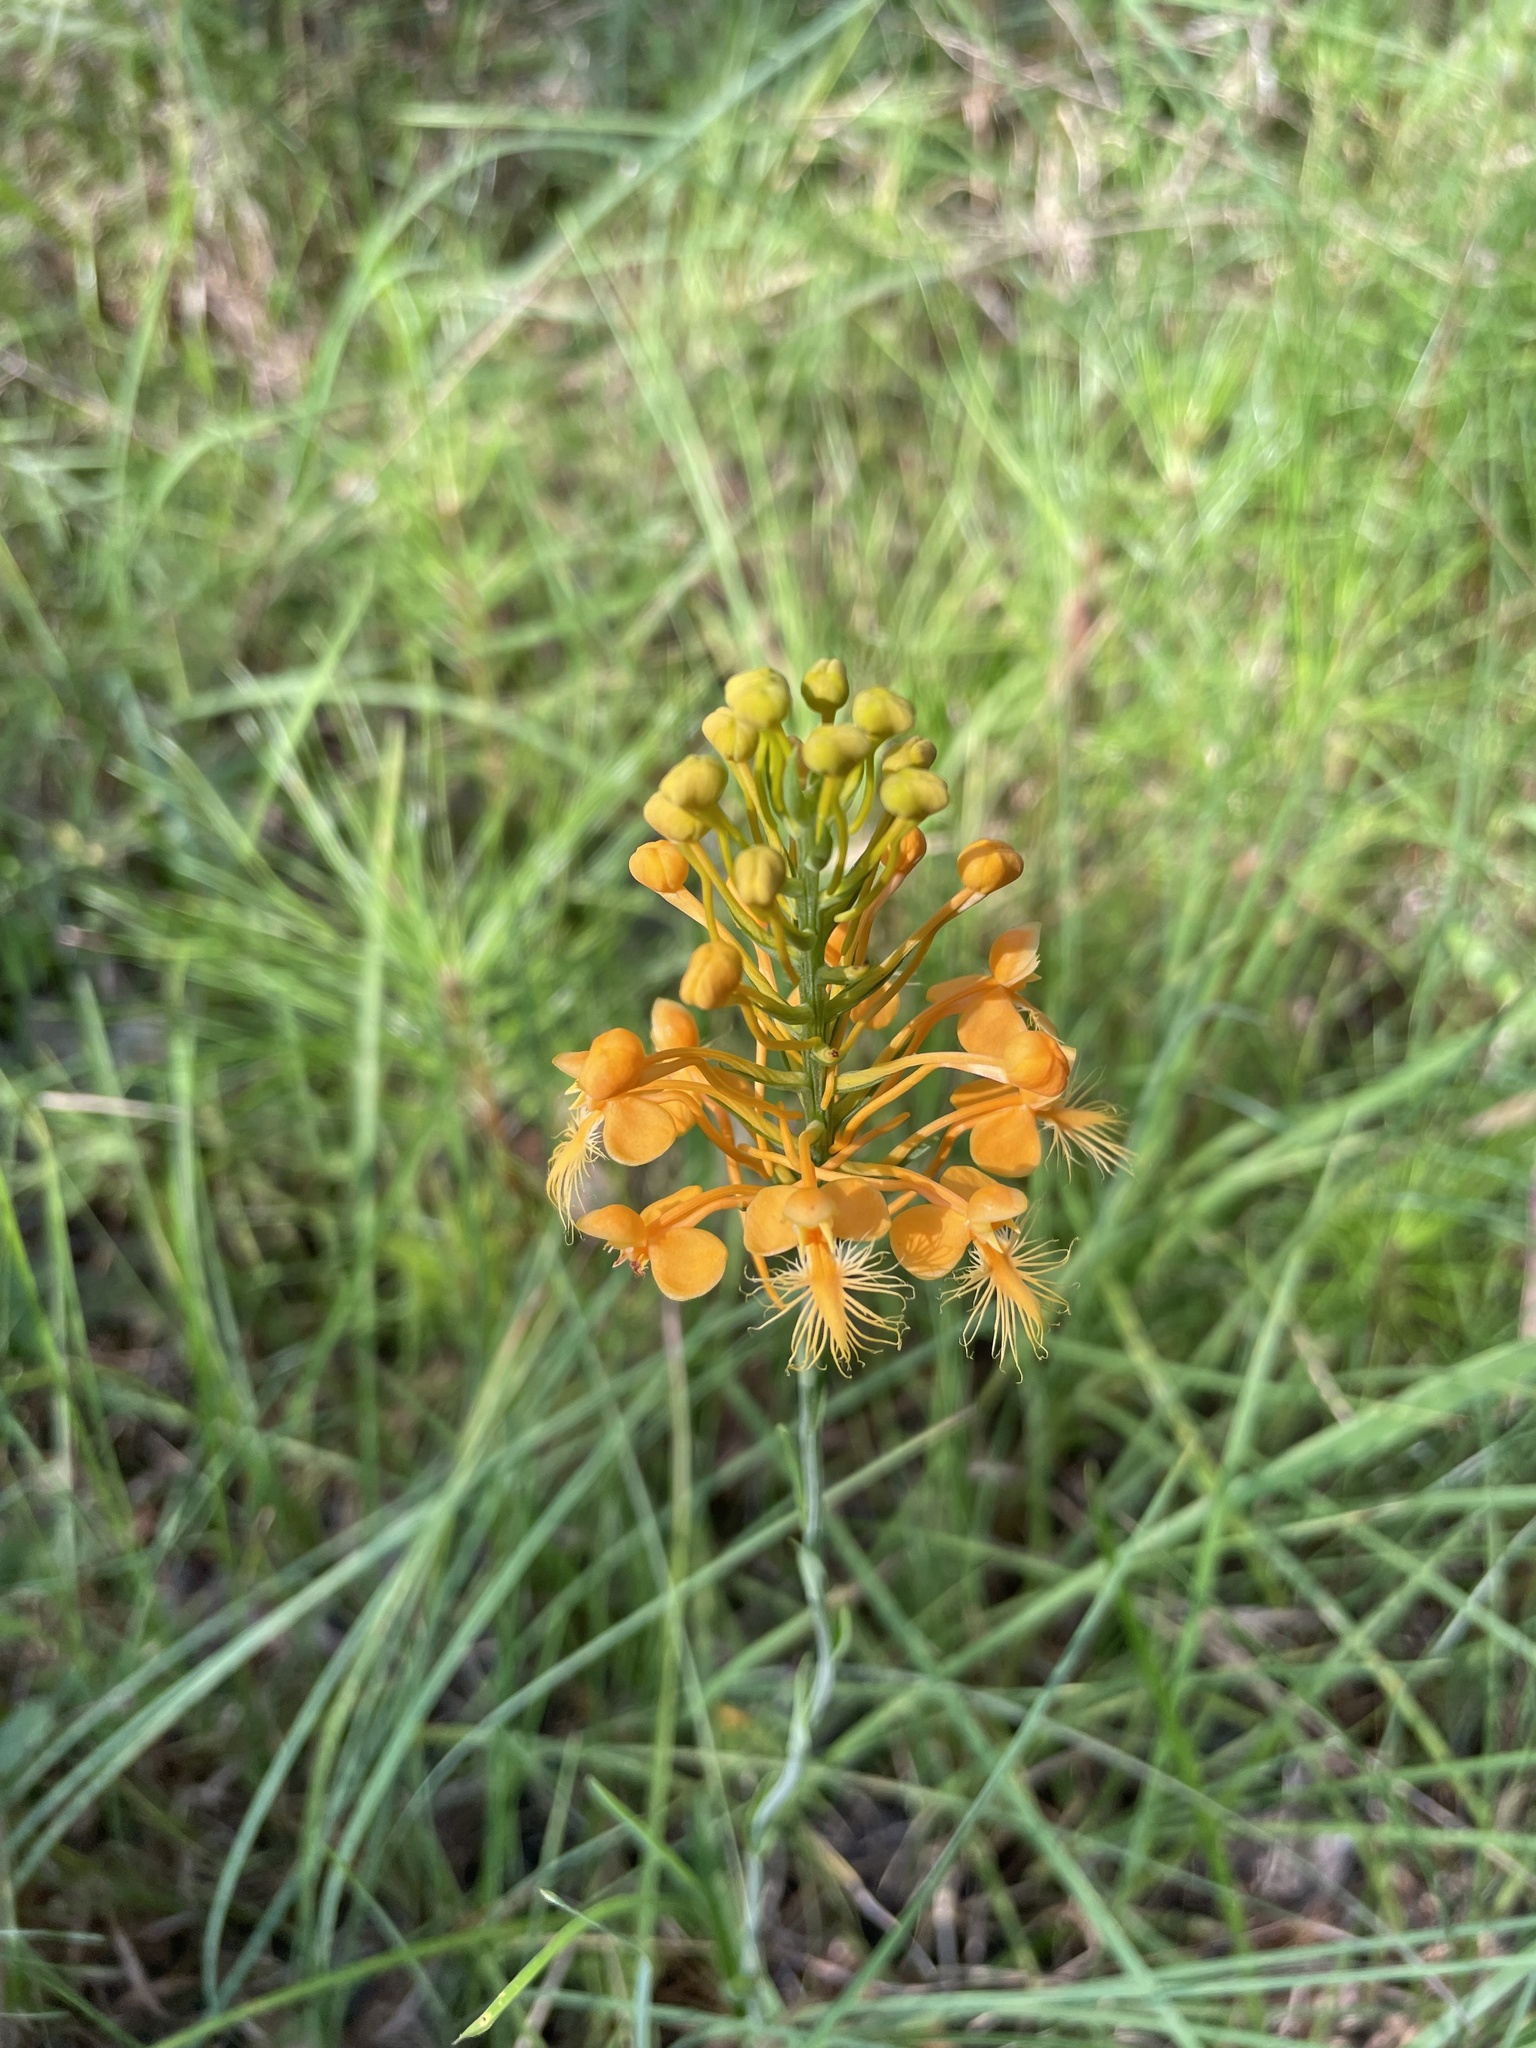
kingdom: Plantae
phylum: Tracheophyta
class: Liliopsida
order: Asparagales
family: Orchidaceae
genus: Platanthera
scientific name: Platanthera ciliaris
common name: Yellow fringed orchid
